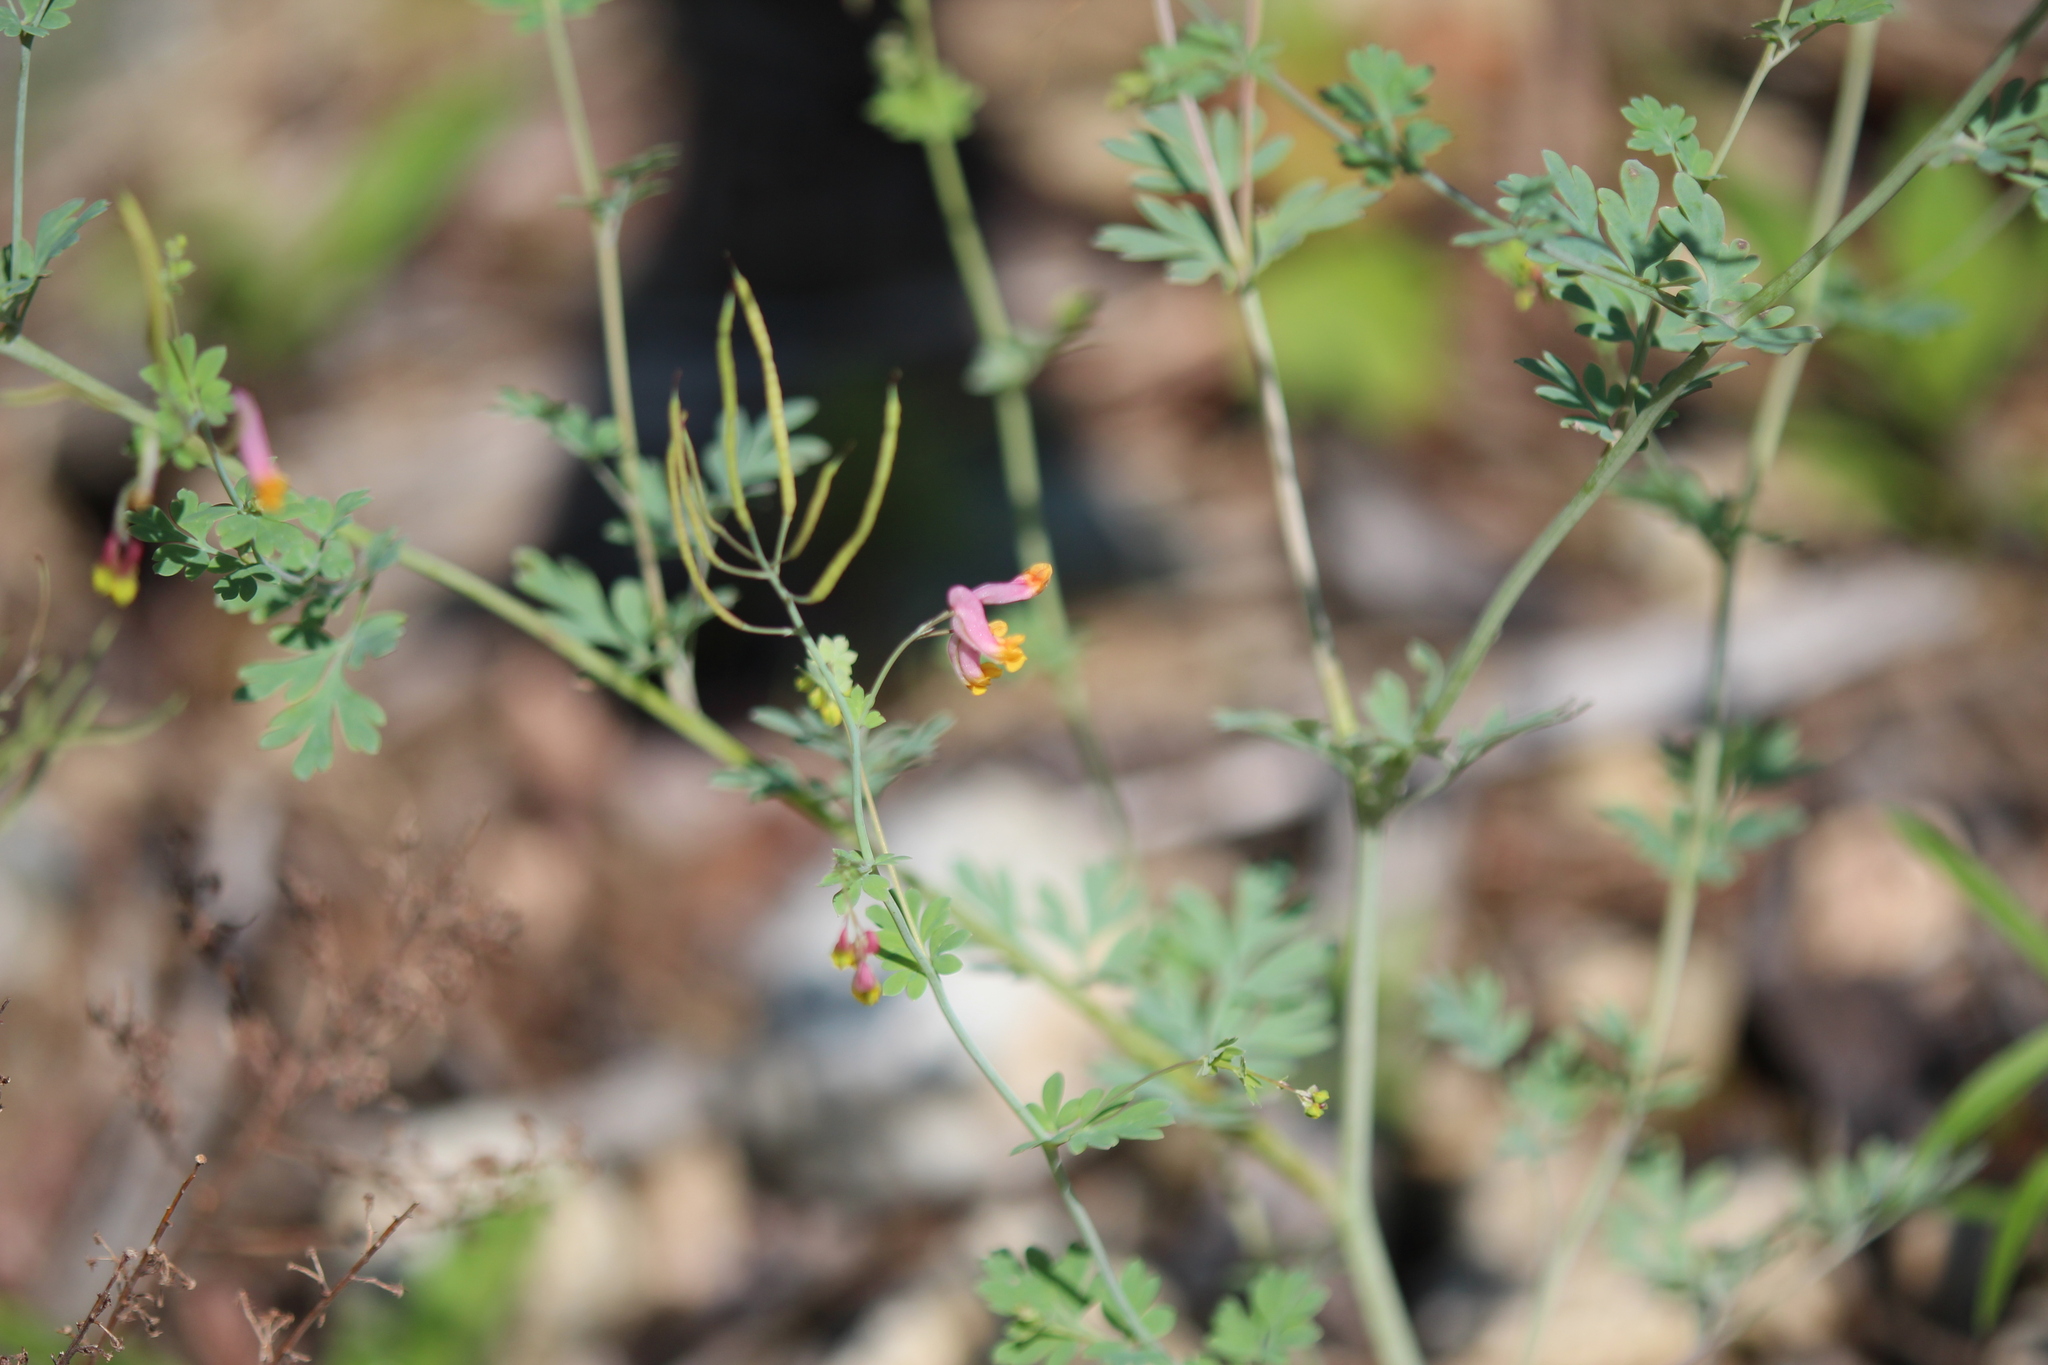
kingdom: Plantae
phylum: Tracheophyta
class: Magnoliopsida
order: Ranunculales
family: Papaveraceae
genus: Capnoides
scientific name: Capnoides sempervirens
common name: Rock harlequin
